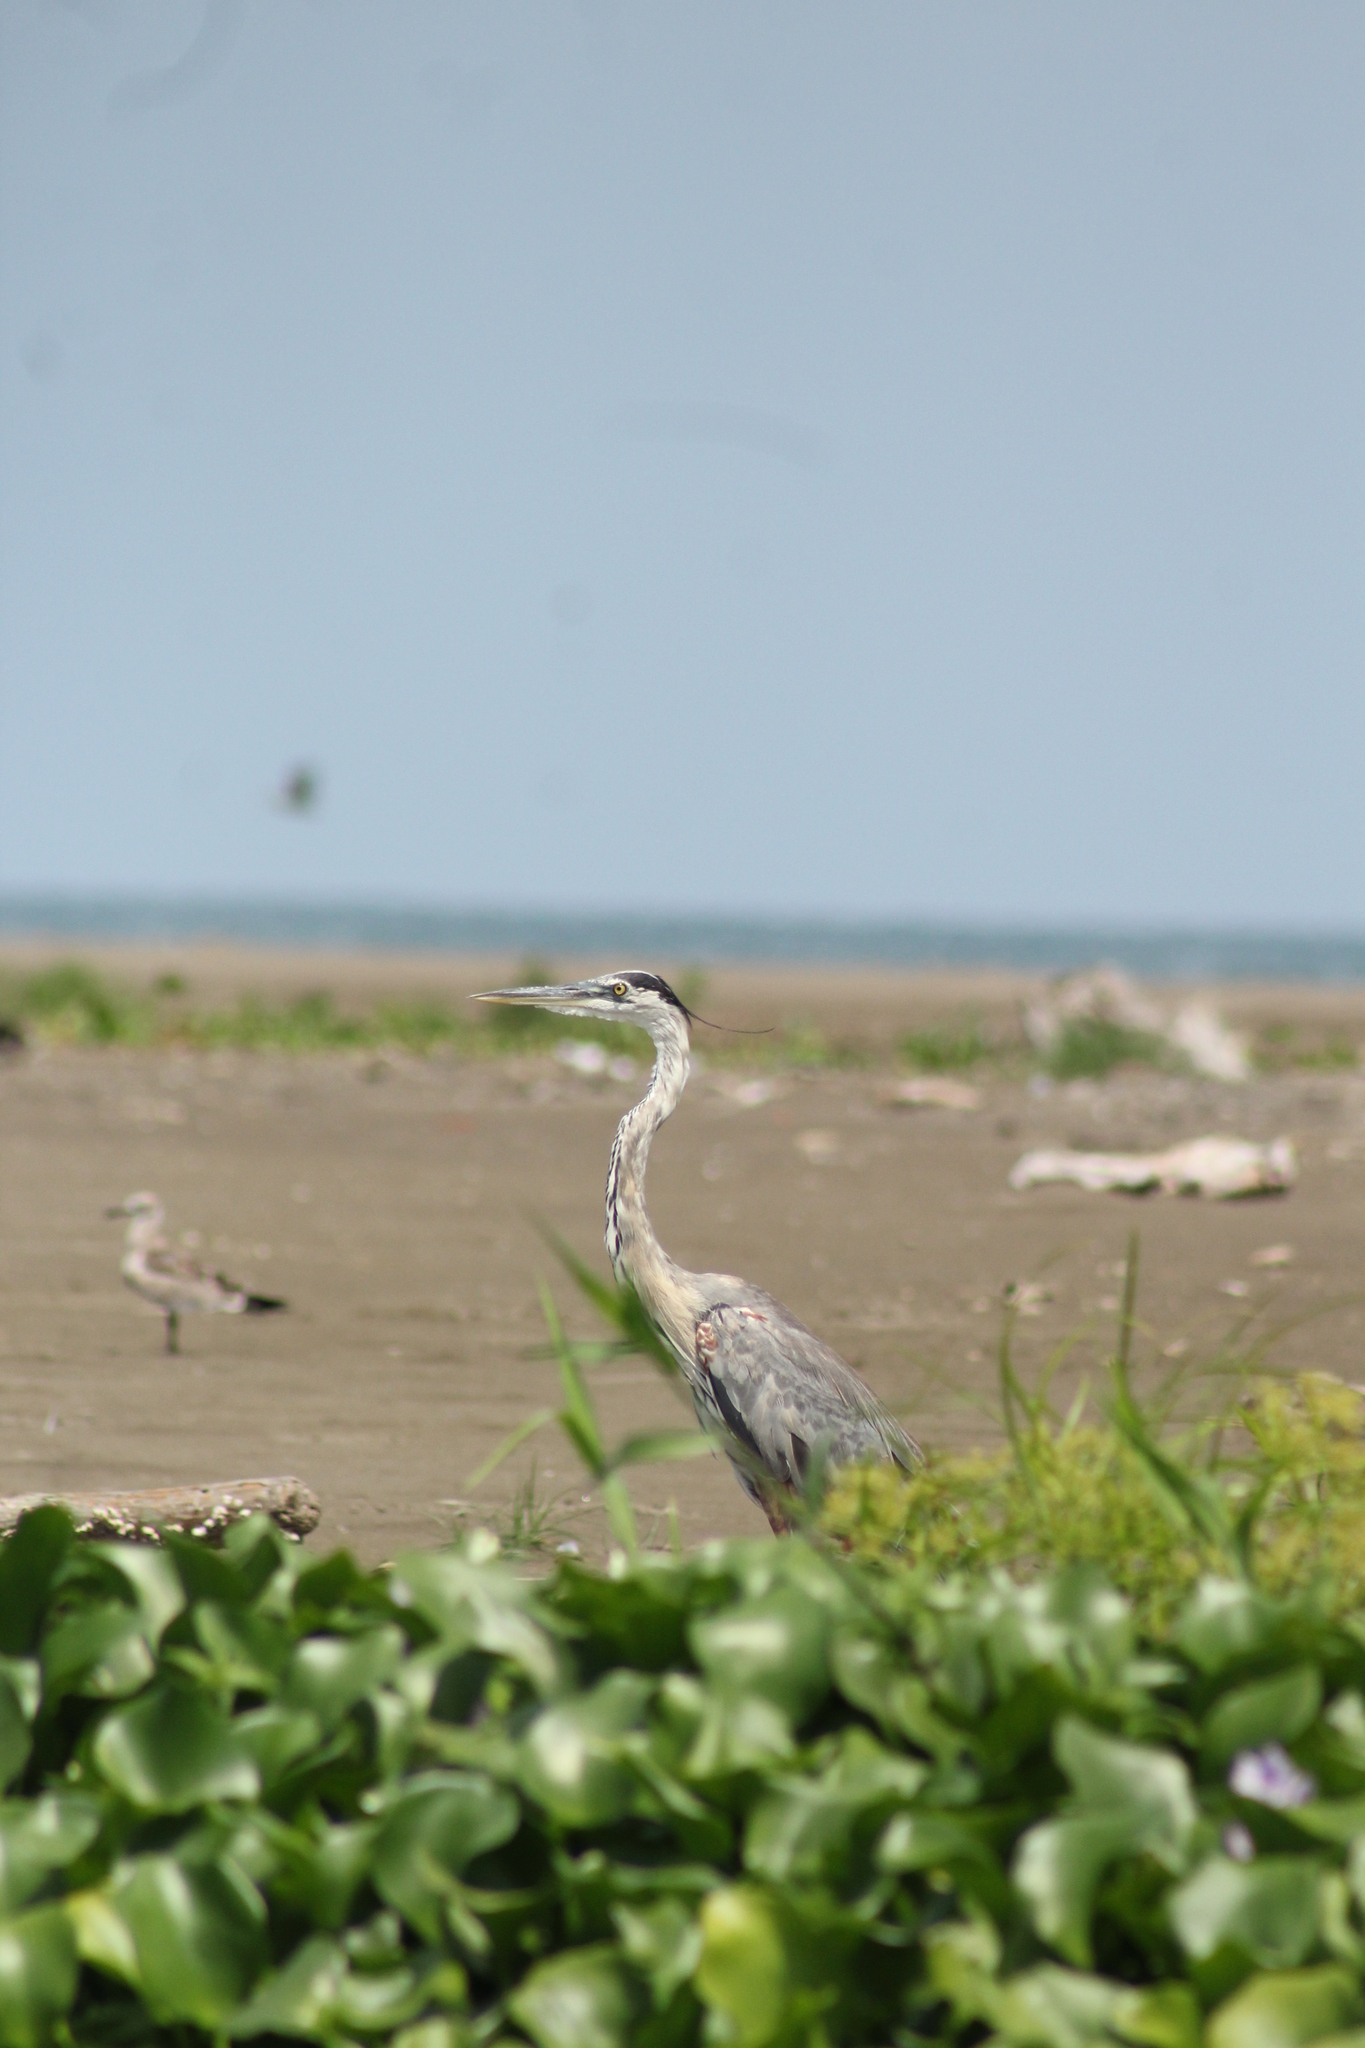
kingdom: Animalia
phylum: Chordata
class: Aves
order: Pelecaniformes
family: Ardeidae
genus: Ardea
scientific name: Ardea herodias
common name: Great blue heron
